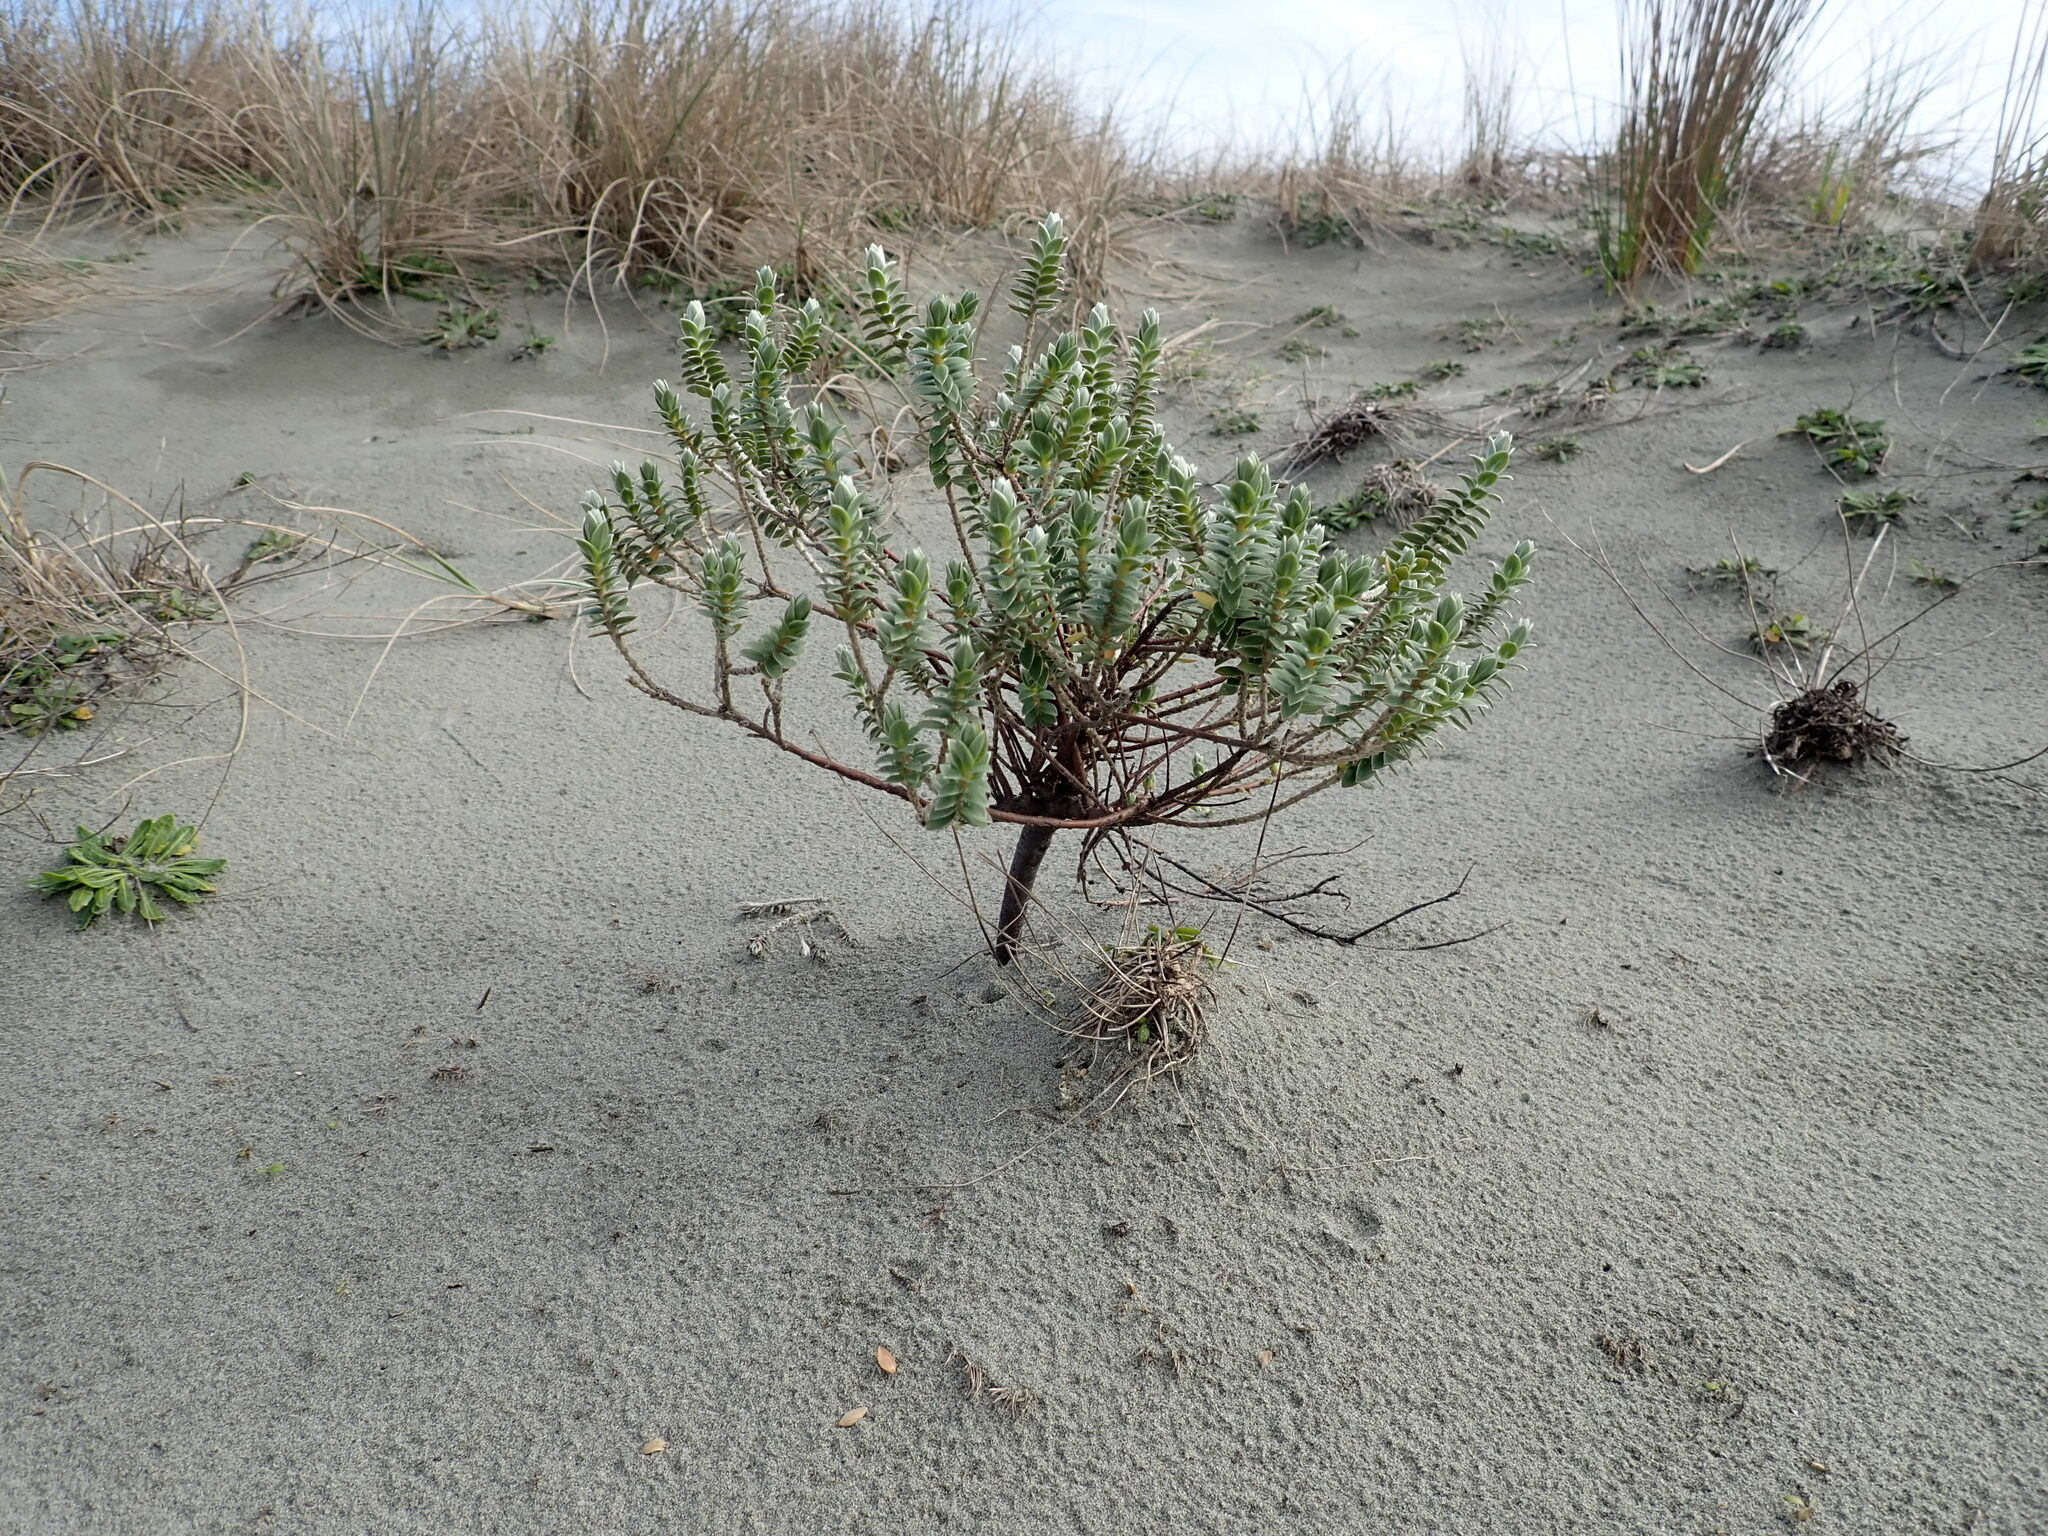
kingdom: Plantae
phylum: Tracheophyta
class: Magnoliopsida
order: Malvales
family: Thymelaeaceae
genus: Pimelea
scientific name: Pimelea villosa
